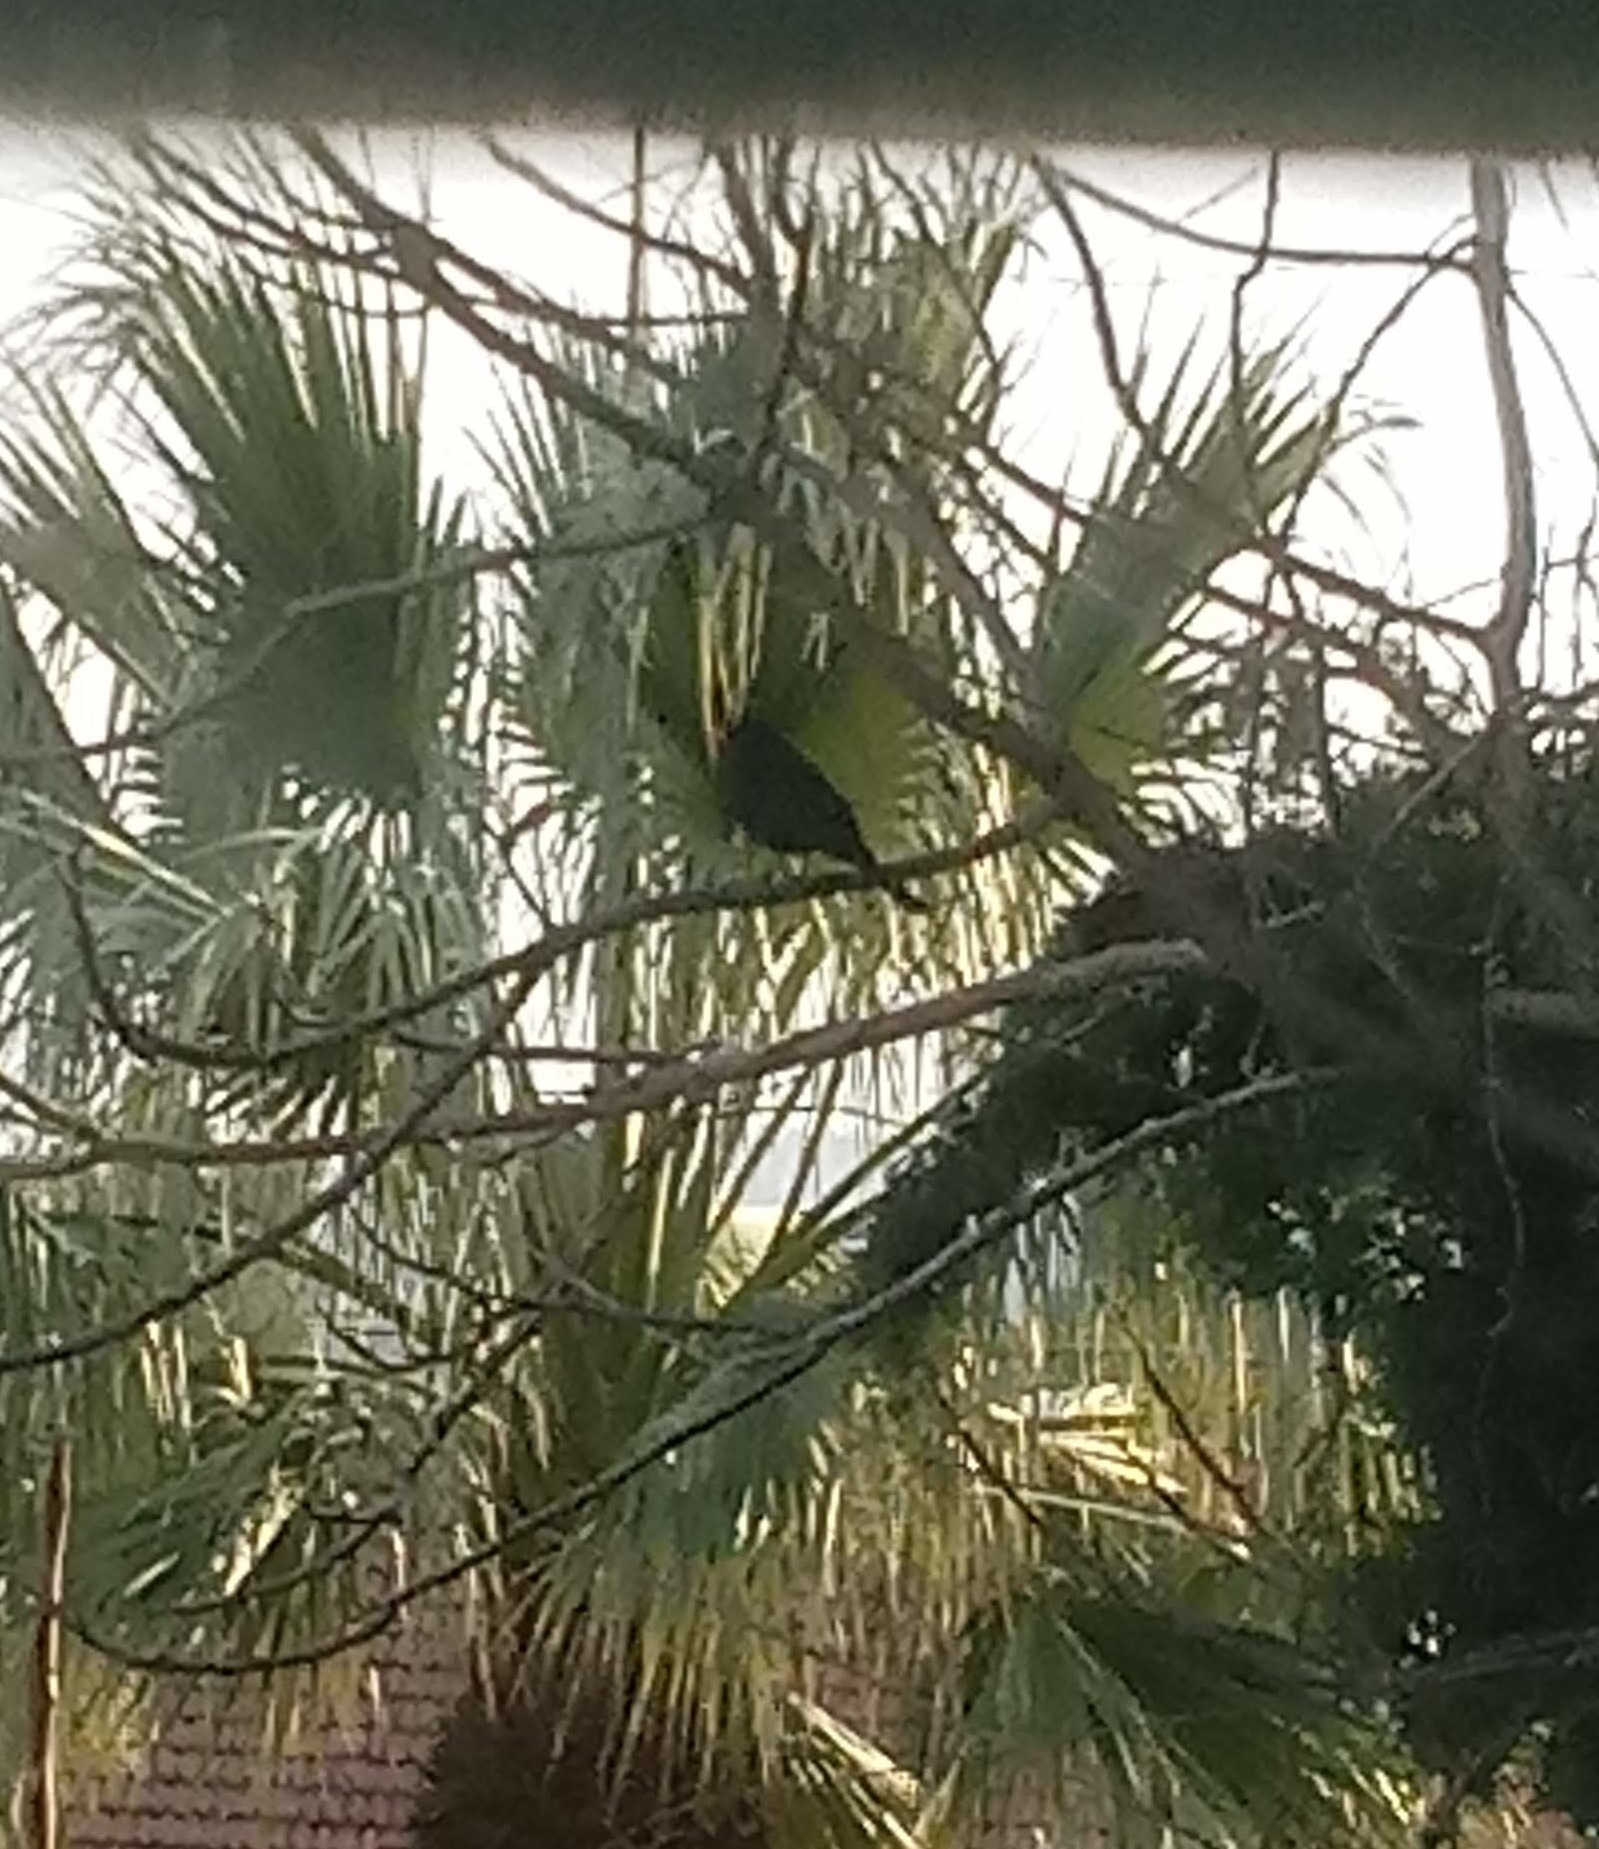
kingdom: Animalia
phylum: Chordata
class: Aves
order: Passeriformes
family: Turdidae
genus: Turdus
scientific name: Turdus merula
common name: Common blackbird
